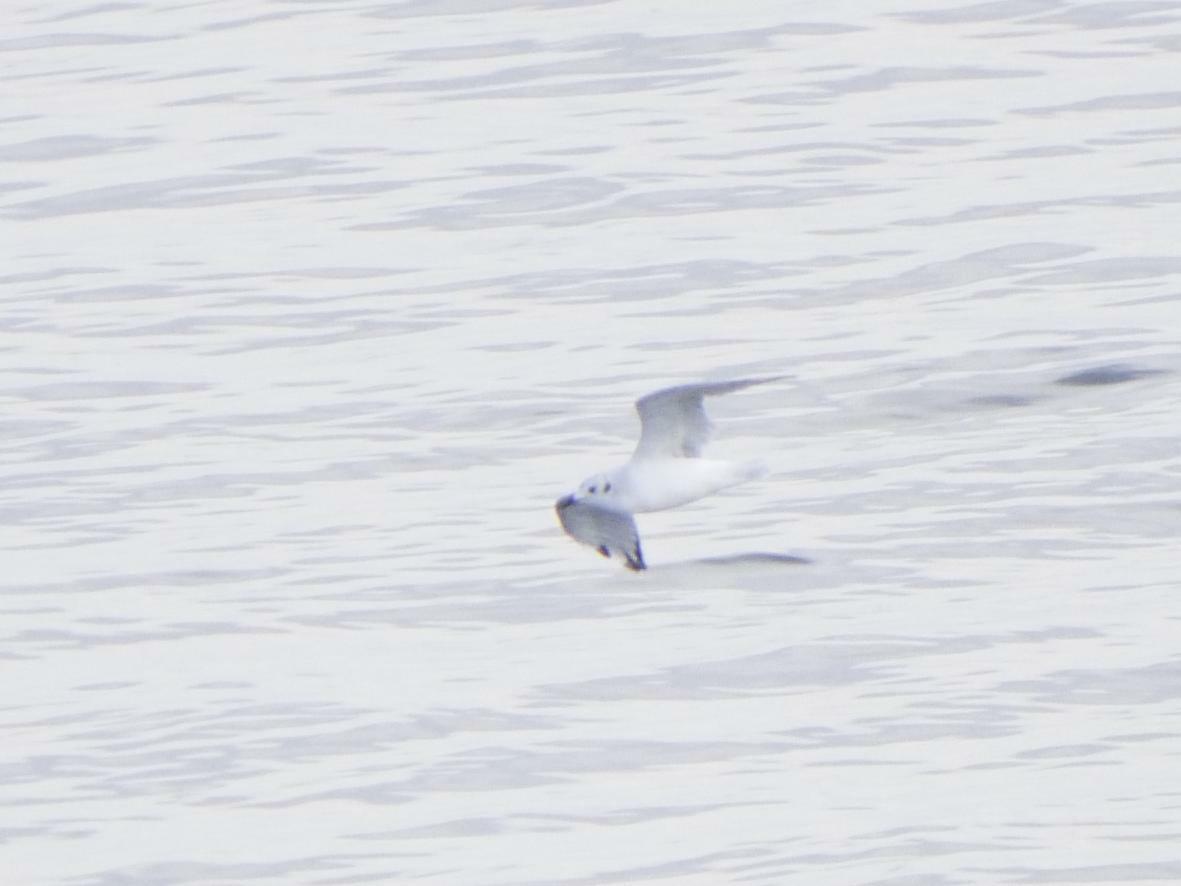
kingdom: Animalia
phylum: Chordata
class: Aves
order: Charadriiformes
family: Laridae
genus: Chroicocephalus
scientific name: Chroicocephalus philadelphia
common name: Bonaparte's gull
